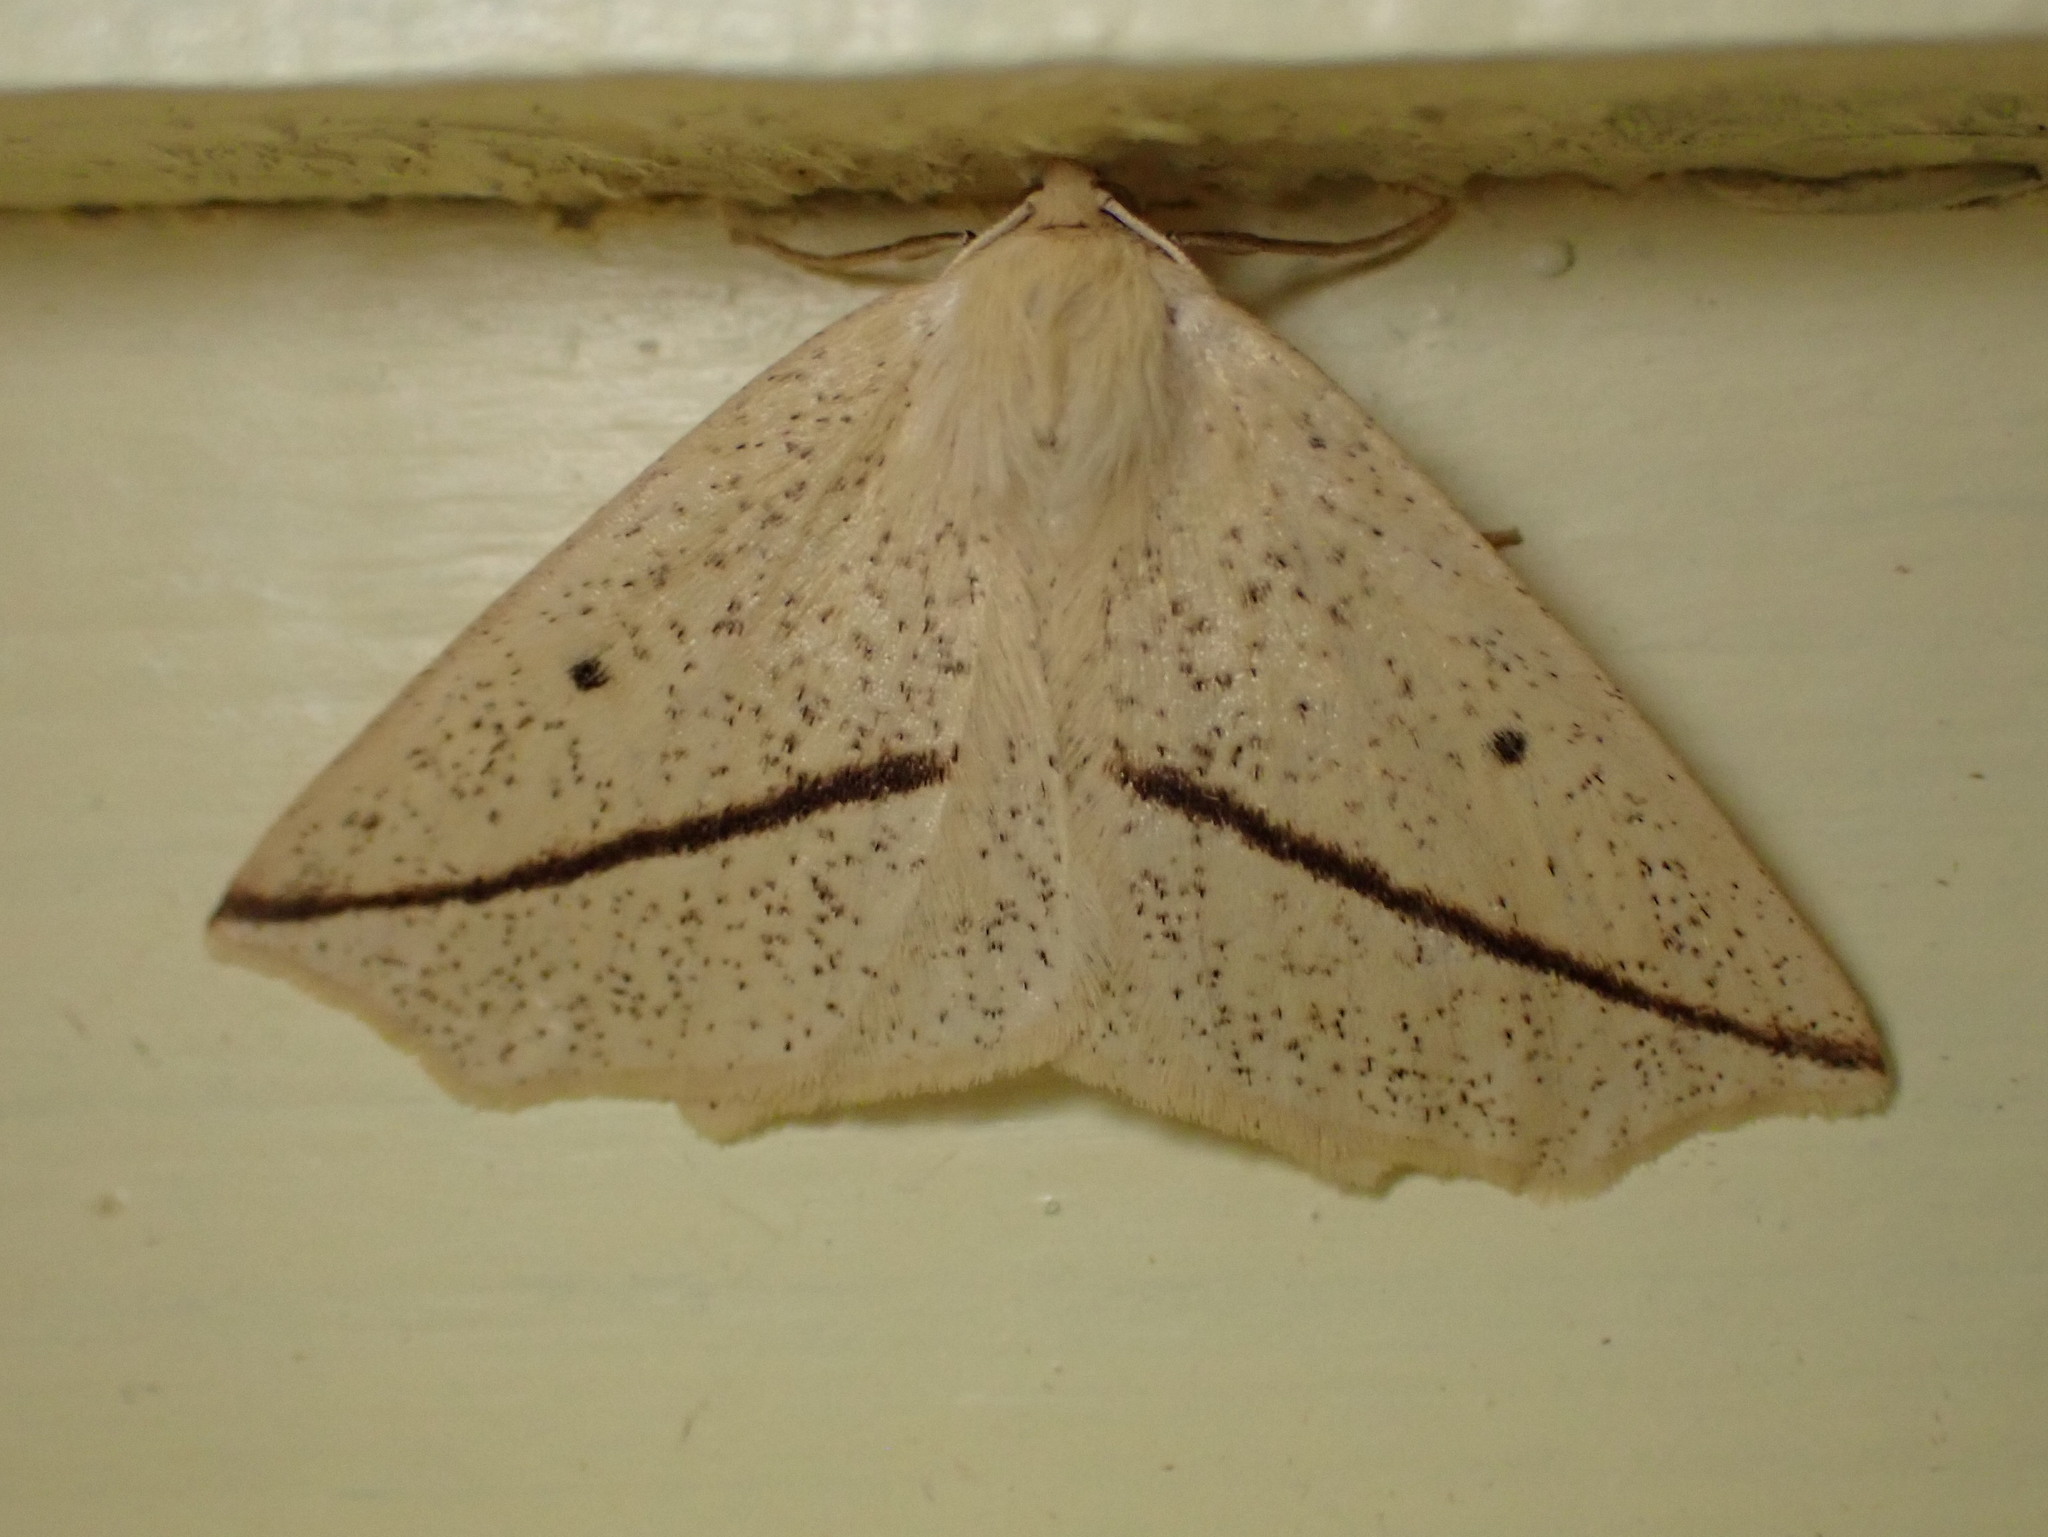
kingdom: Animalia
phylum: Arthropoda
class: Insecta
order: Lepidoptera
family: Geometridae
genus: Tetracis
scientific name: Tetracis crocallata
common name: Yellow slant-line
